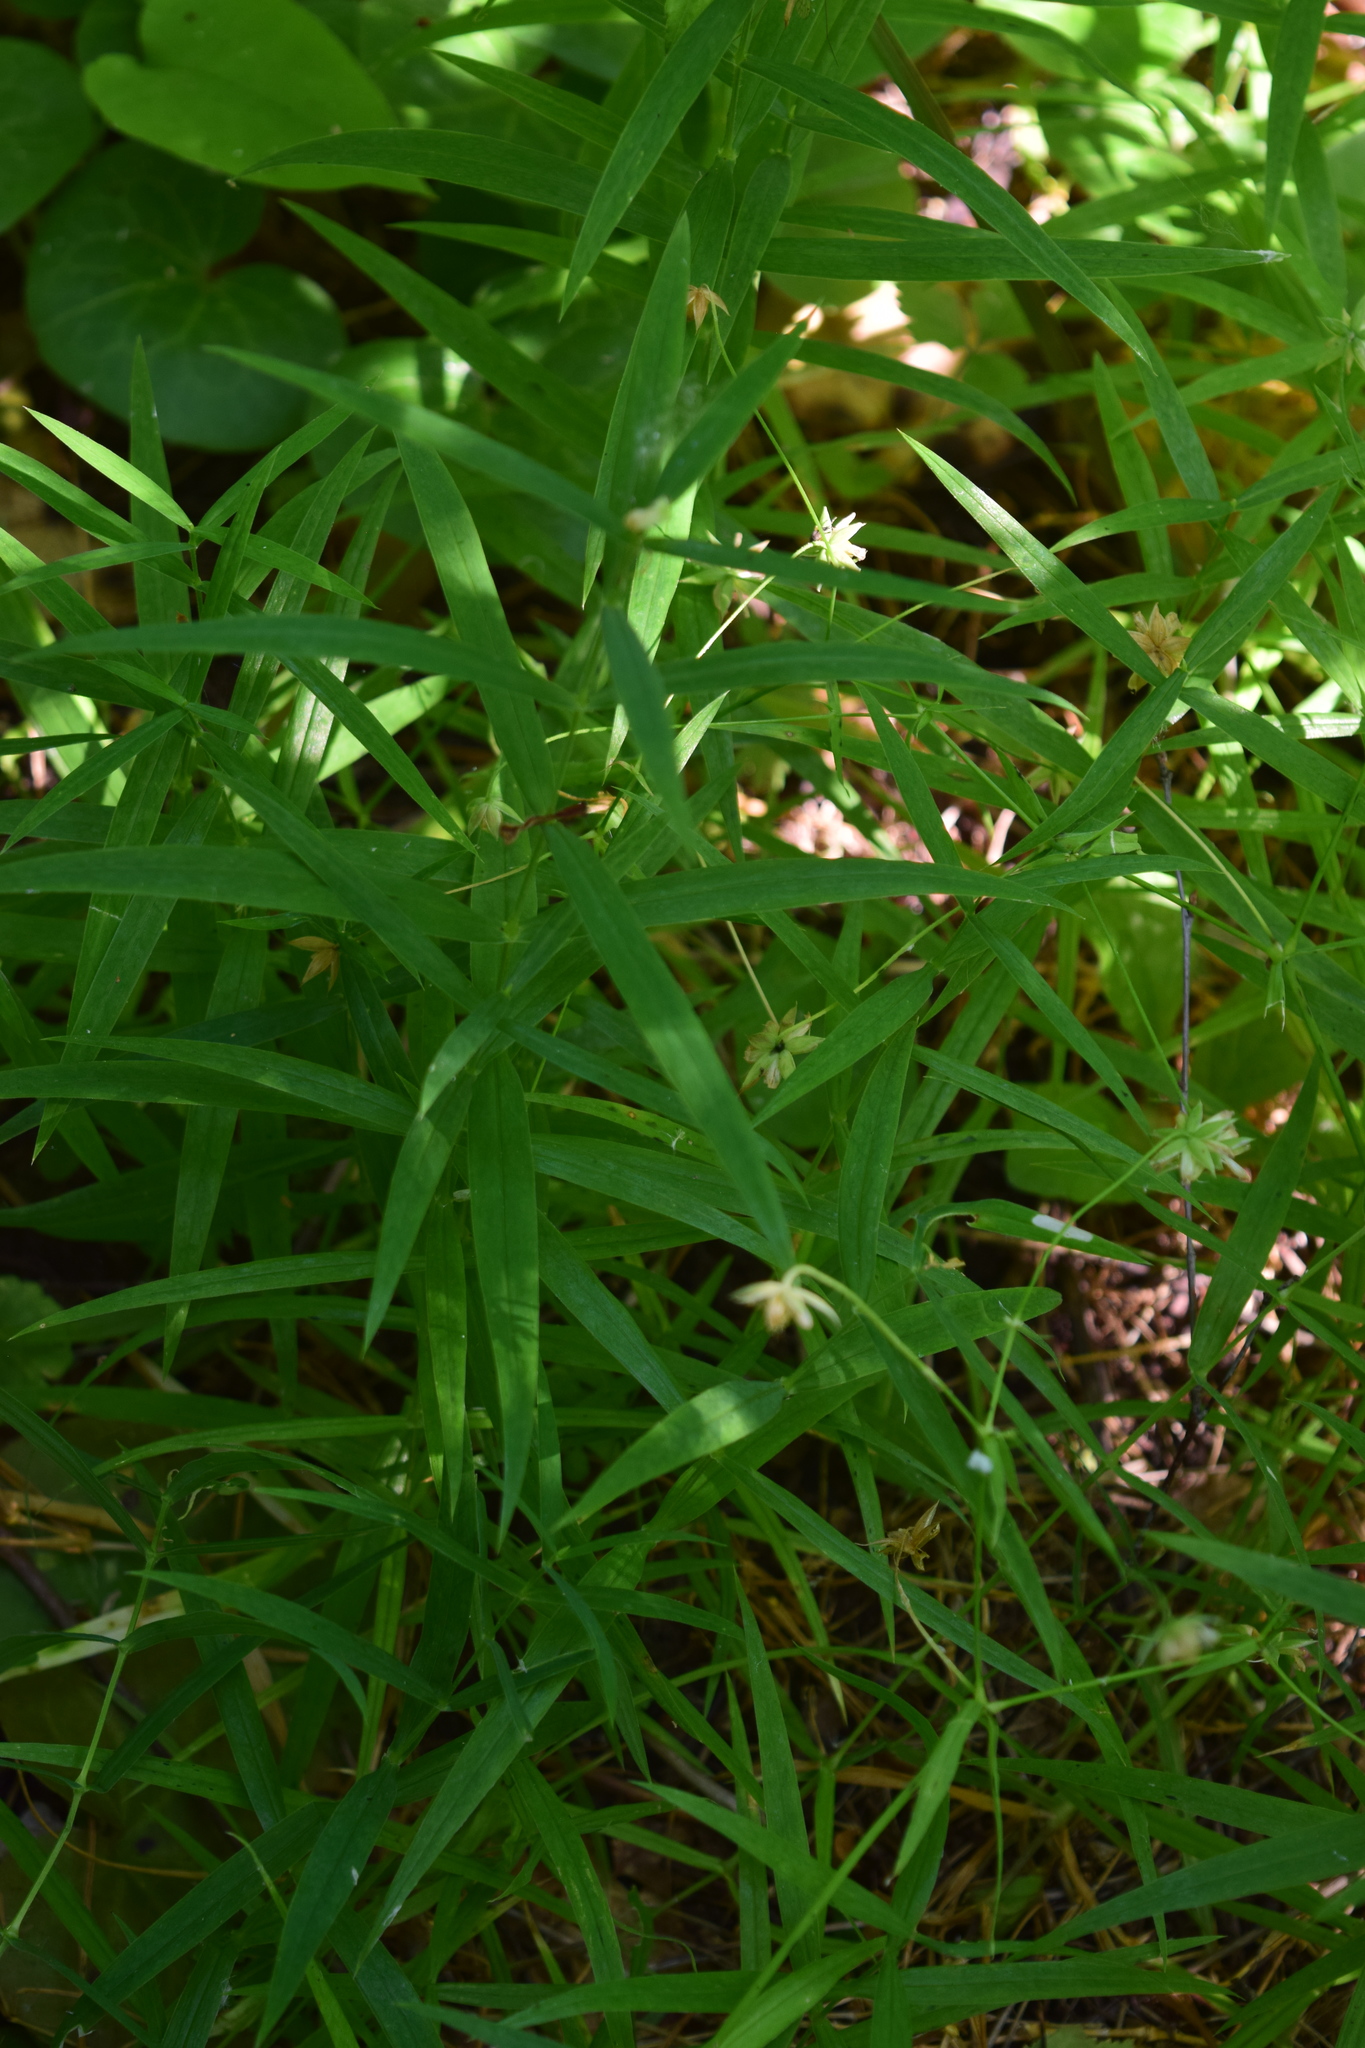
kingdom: Plantae
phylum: Tracheophyta
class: Magnoliopsida
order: Caryophyllales
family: Caryophyllaceae
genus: Rabelera
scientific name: Rabelera holostea
